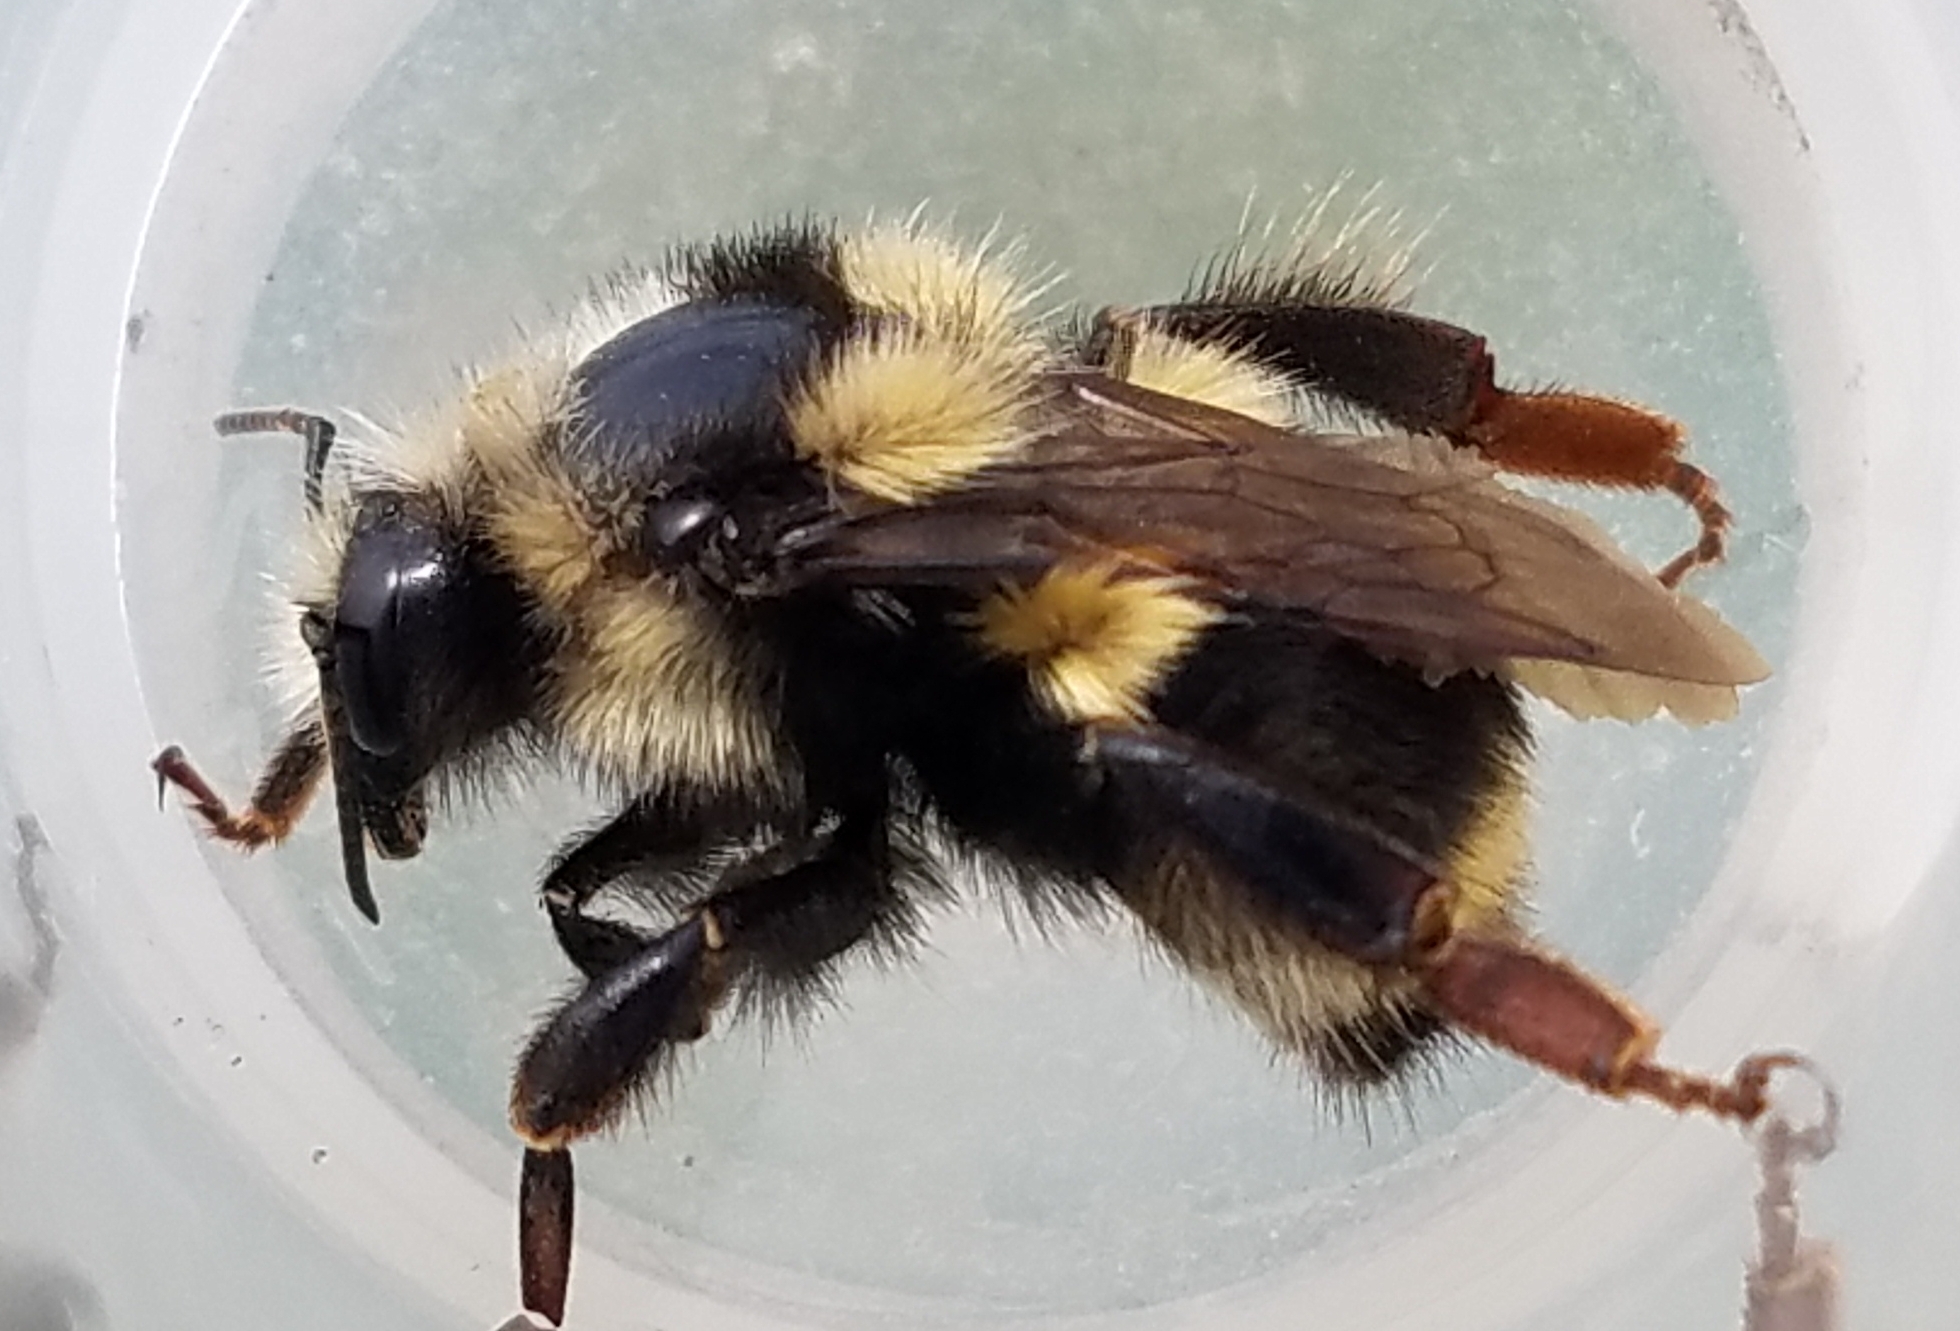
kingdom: Animalia
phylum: Arthropoda
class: Insecta
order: Hymenoptera
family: Apidae
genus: Bombus
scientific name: Bombus vancouverensis
